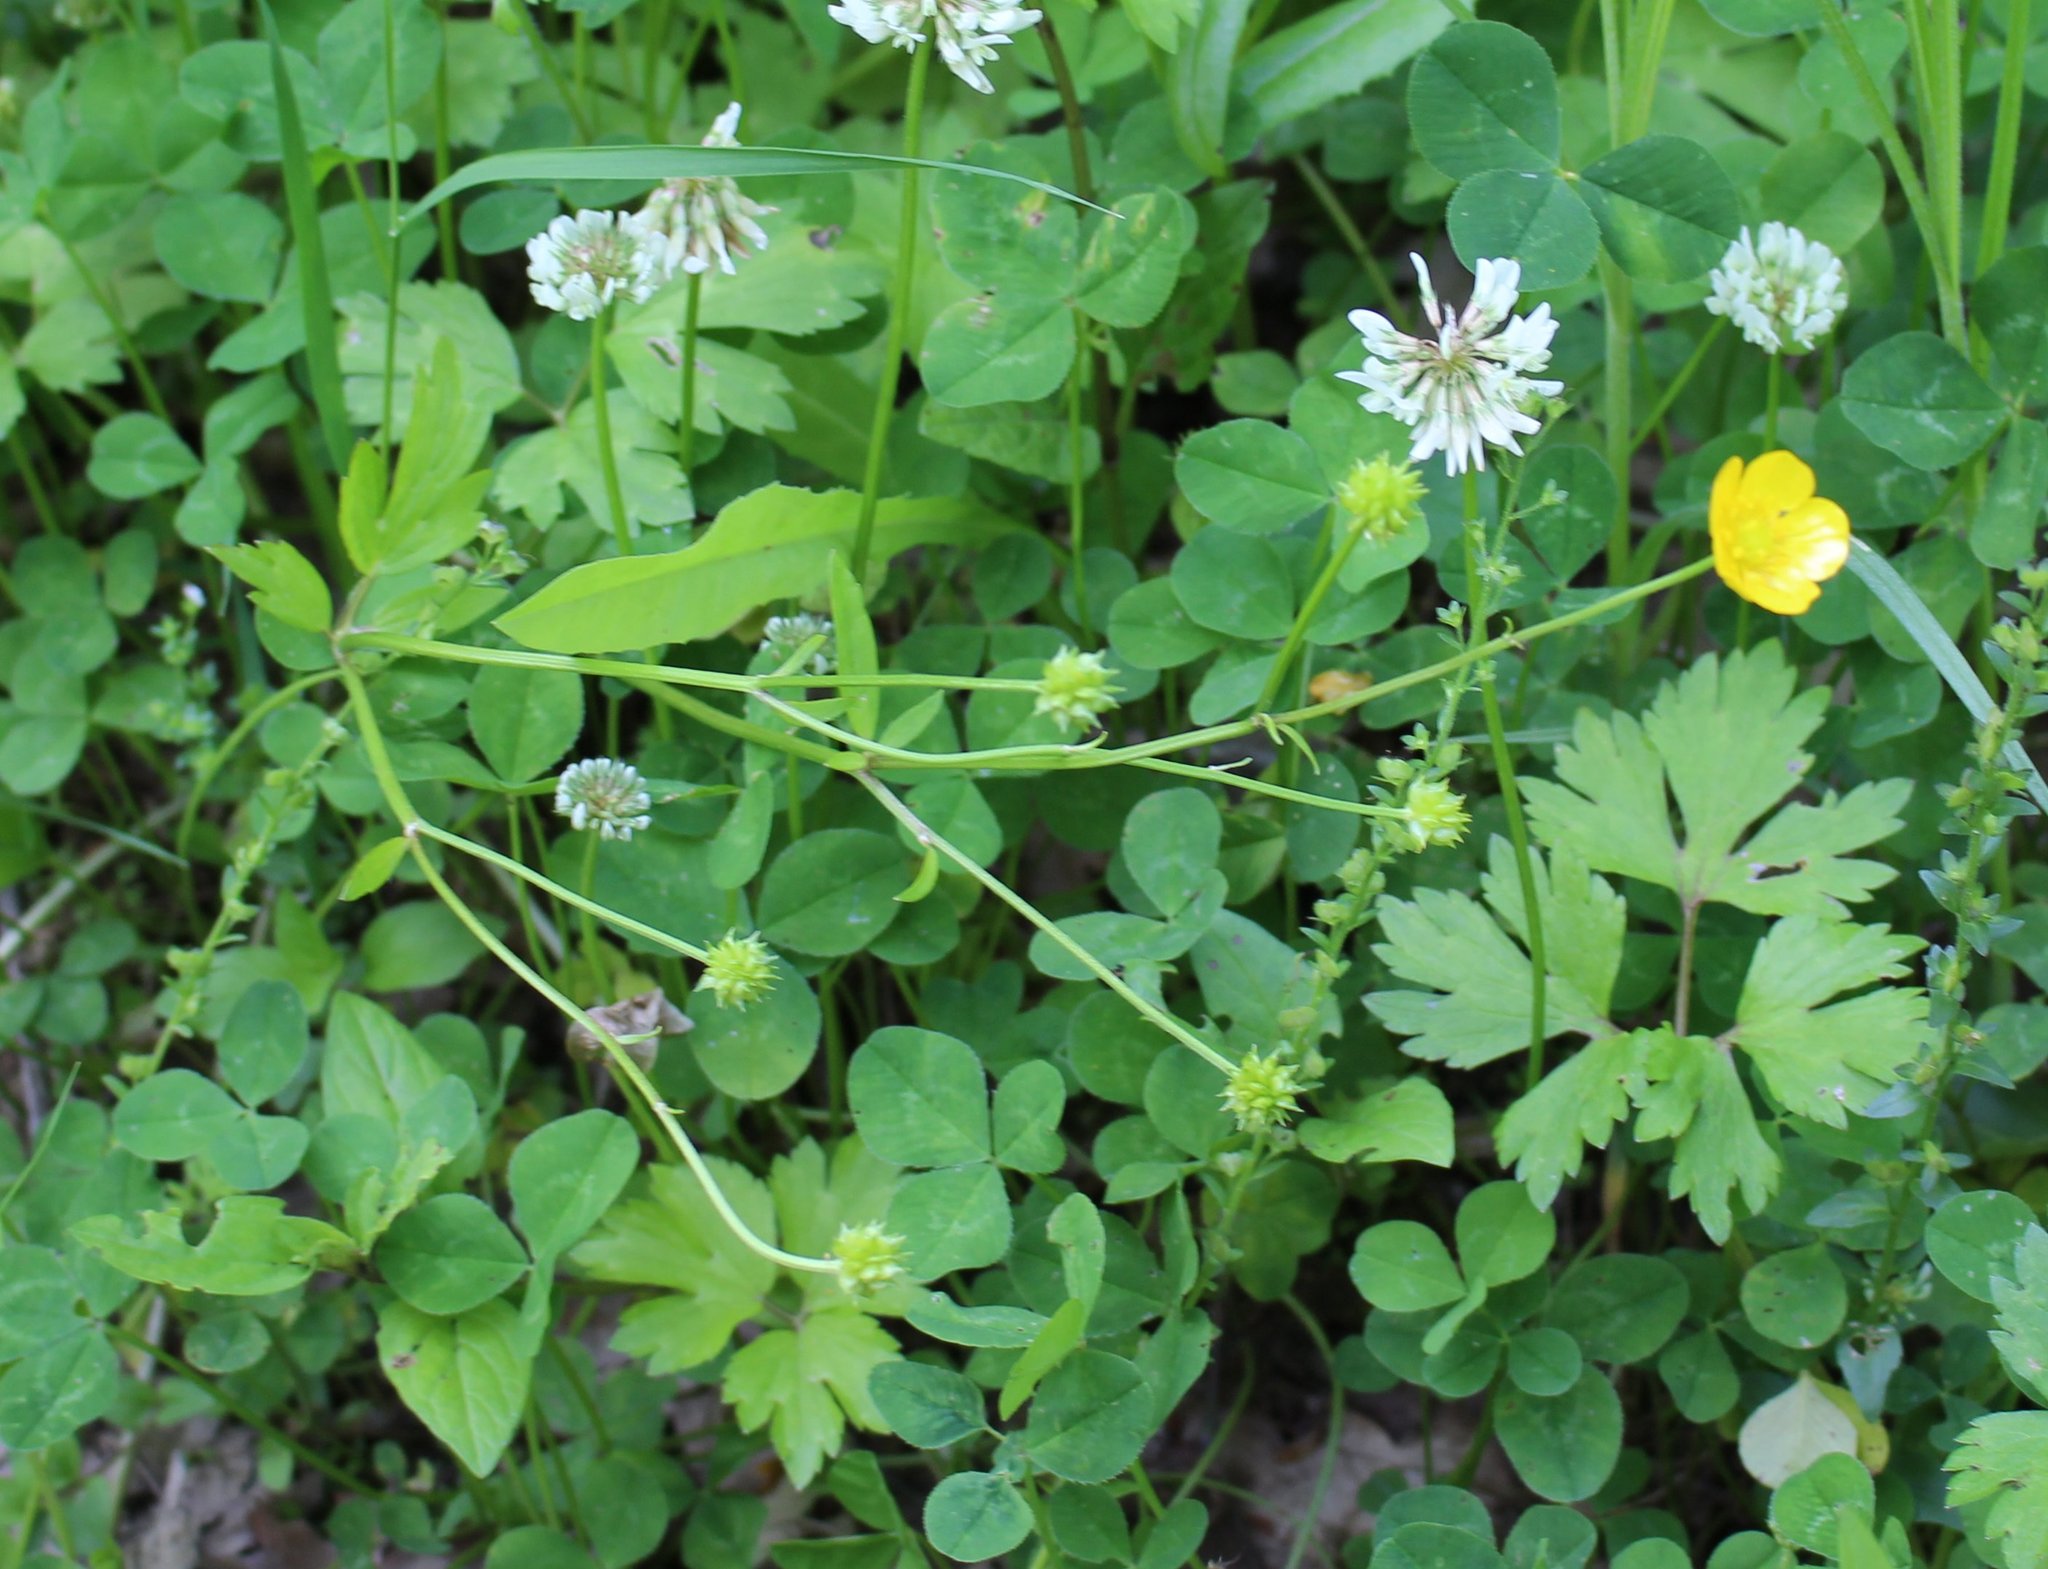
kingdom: Plantae
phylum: Tracheophyta
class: Magnoliopsida
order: Ranunculales
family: Ranunculaceae
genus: Ranunculus
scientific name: Ranunculus repens
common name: Creeping buttercup
